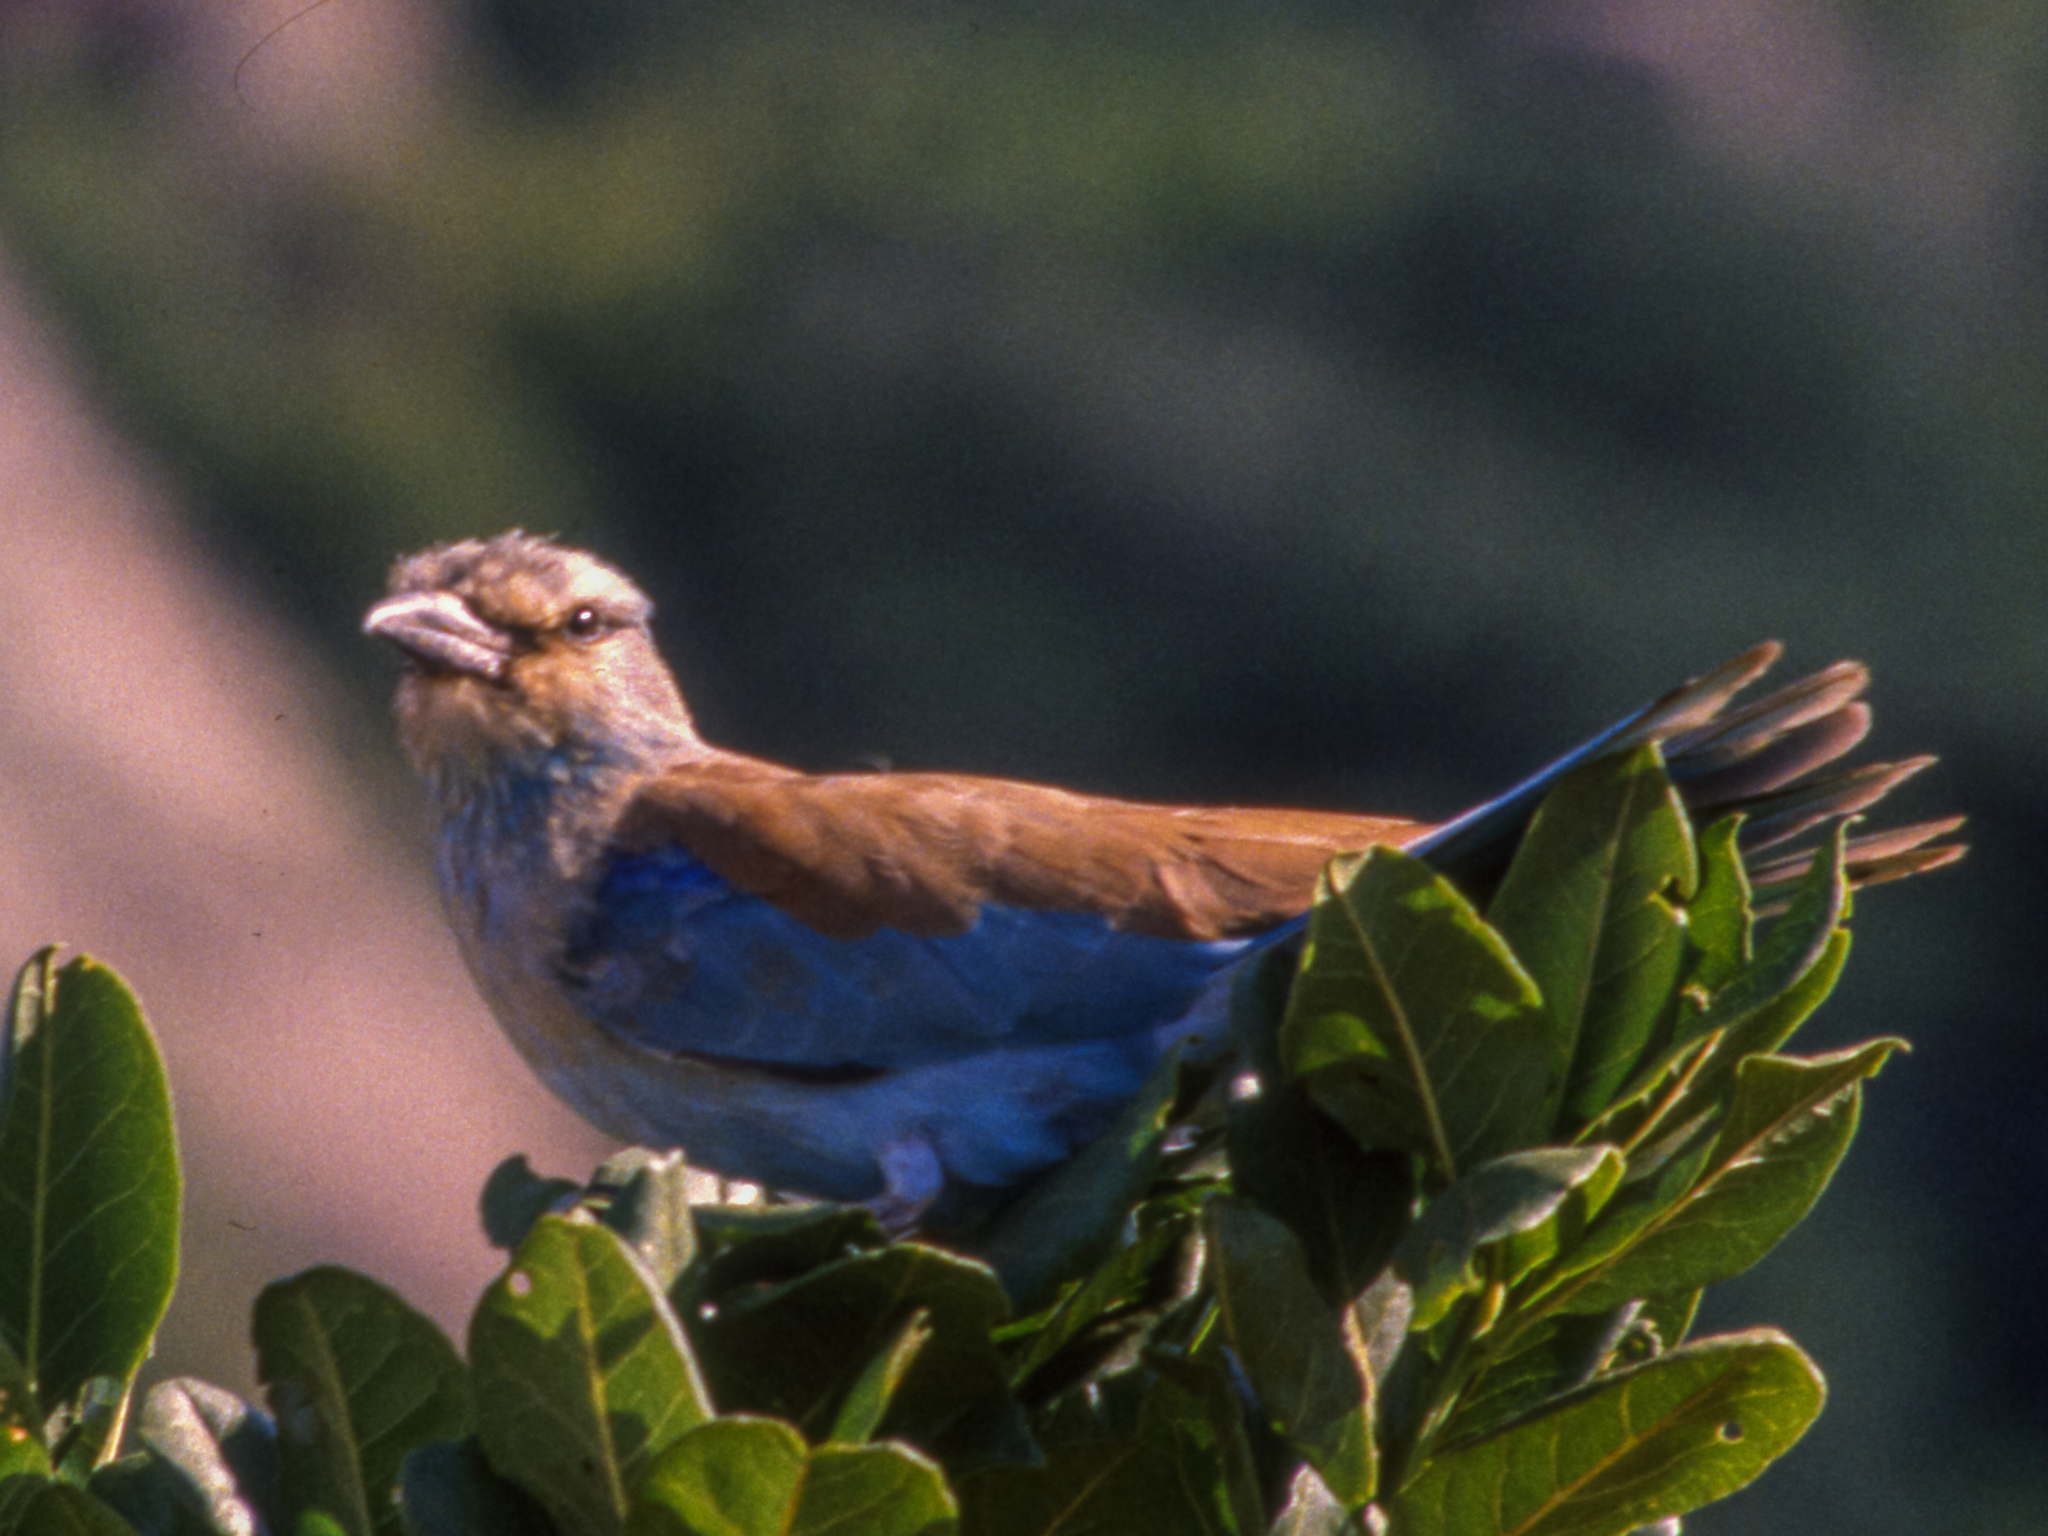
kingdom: Animalia
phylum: Chordata
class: Aves
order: Coraciiformes
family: Coraciidae
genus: Coracias
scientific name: Coracias garrulus
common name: European roller
